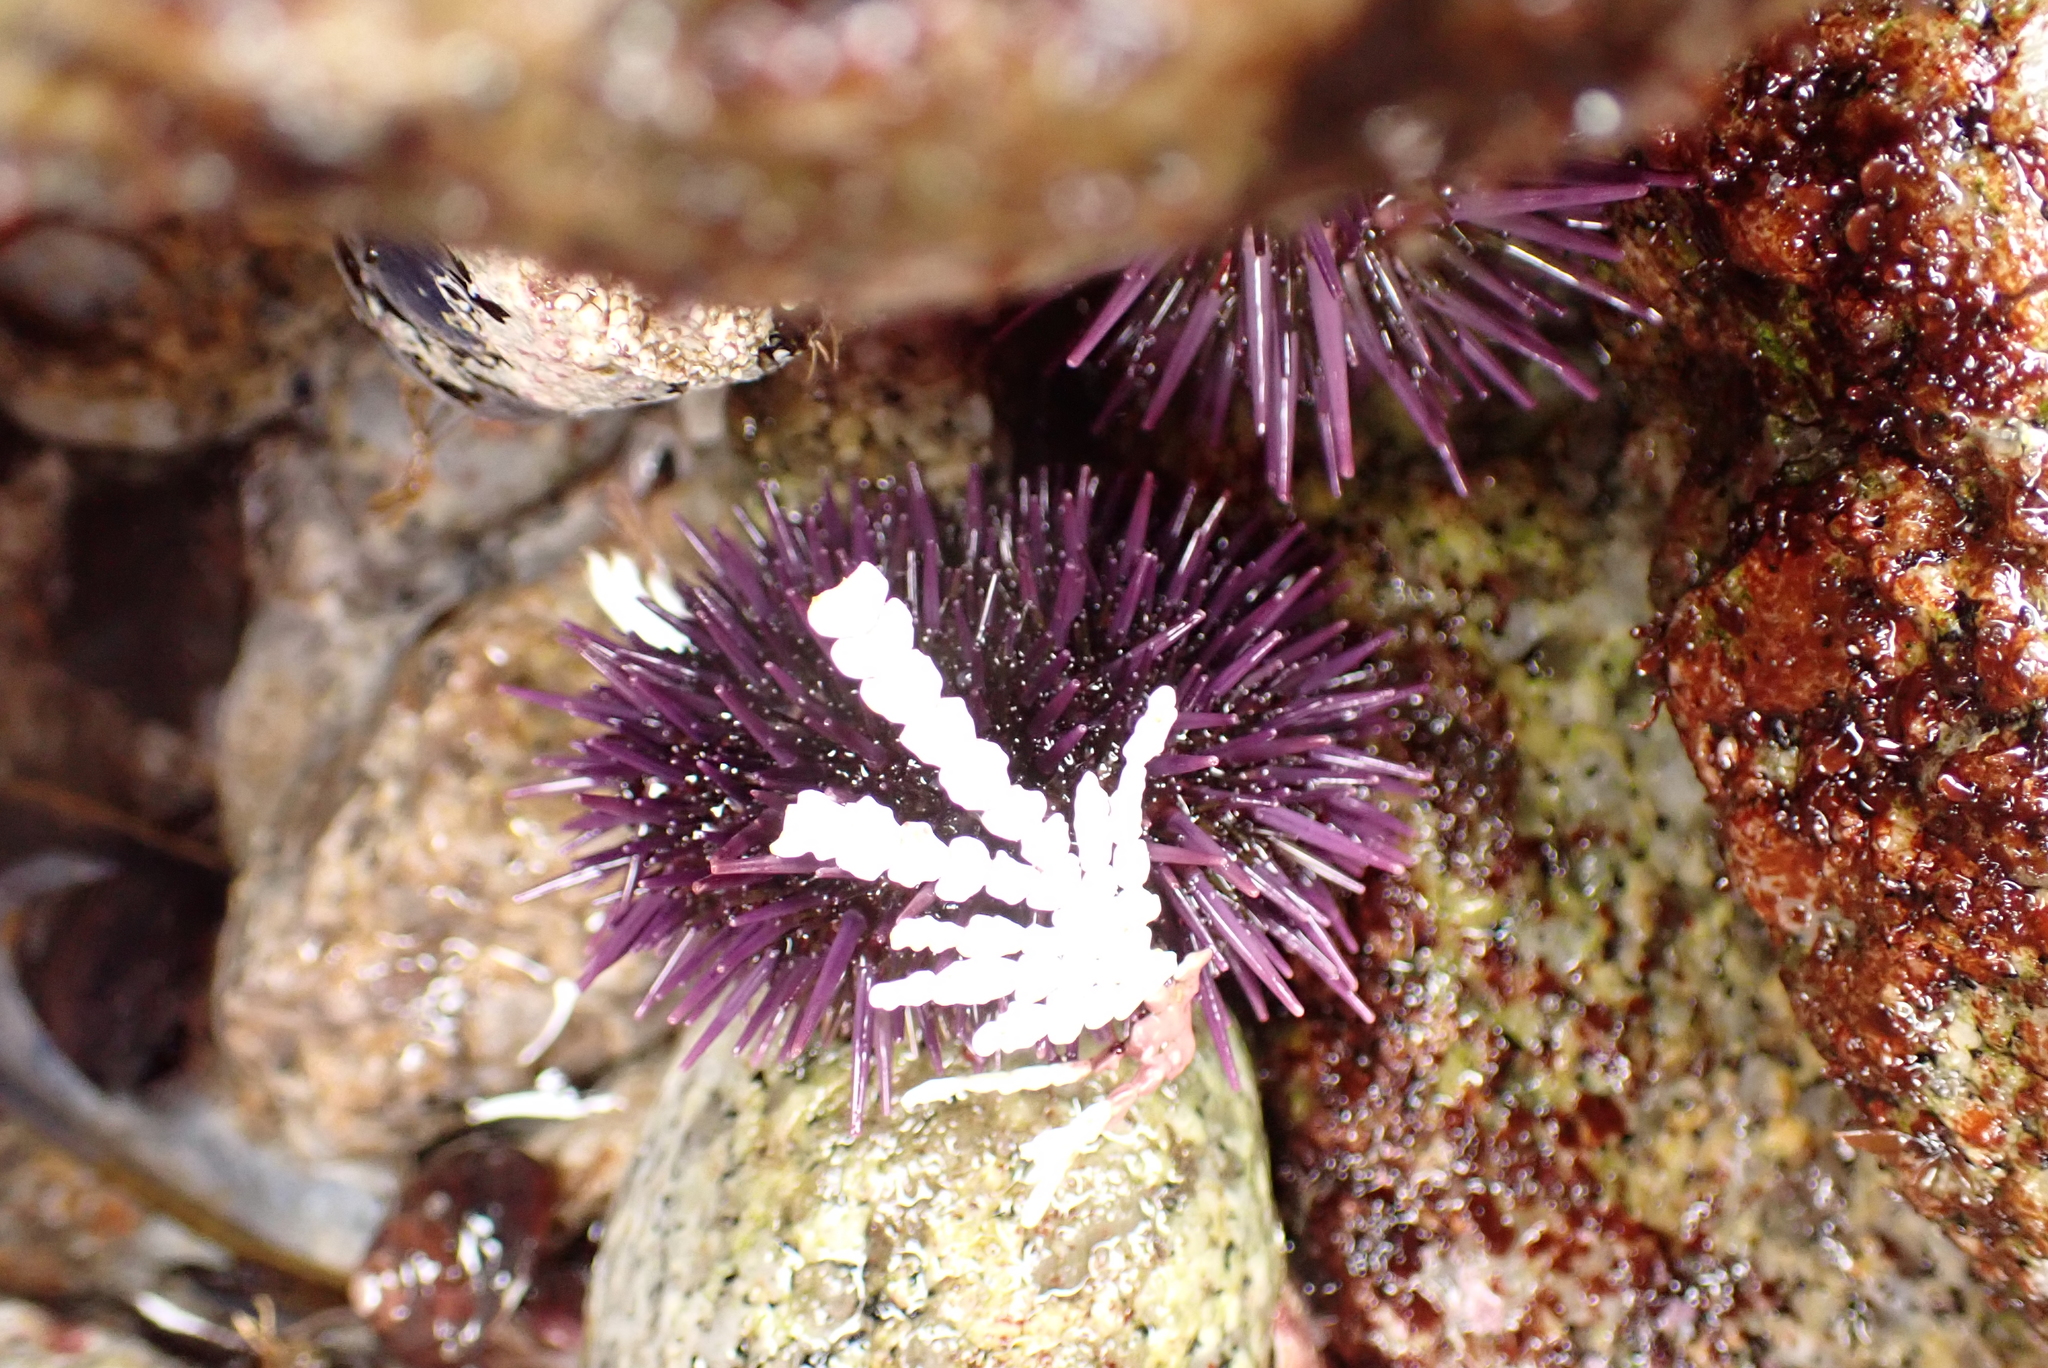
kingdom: Animalia
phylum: Echinodermata
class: Echinoidea
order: Camarodonta
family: Strongylocentrotidae
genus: Strongylocentrotus
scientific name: Strongylocentrotus purpuratus
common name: Purple sea urchin
